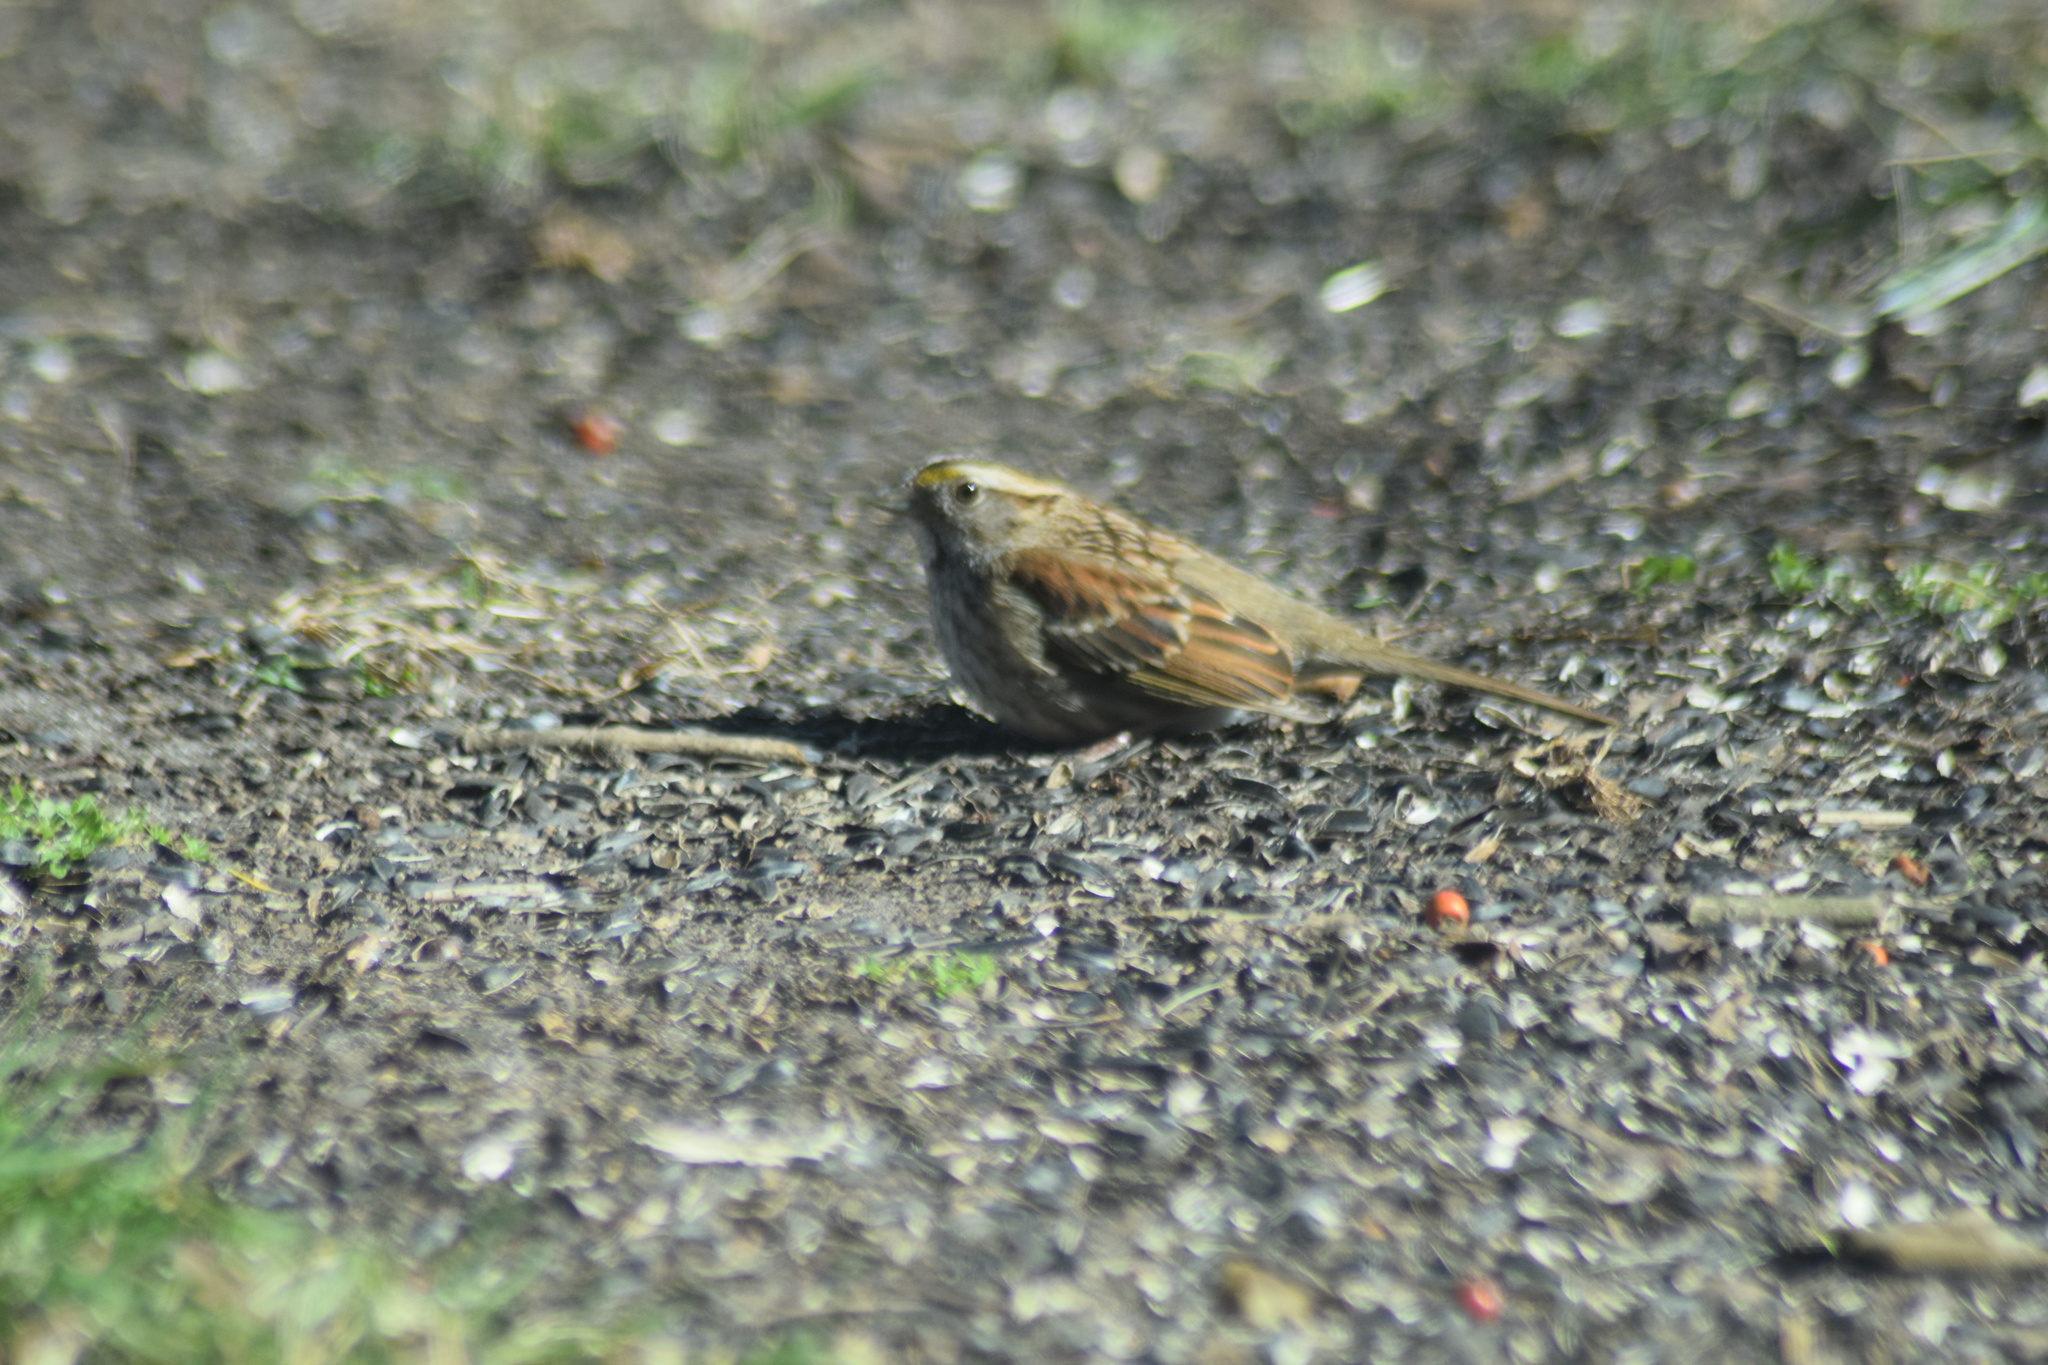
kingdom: Animalia
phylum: Chordata
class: Aves
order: Passeriformes
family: Passerellidae
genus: Zonotrichia
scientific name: Zonotrichia albicollis
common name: White-throated sparrow
